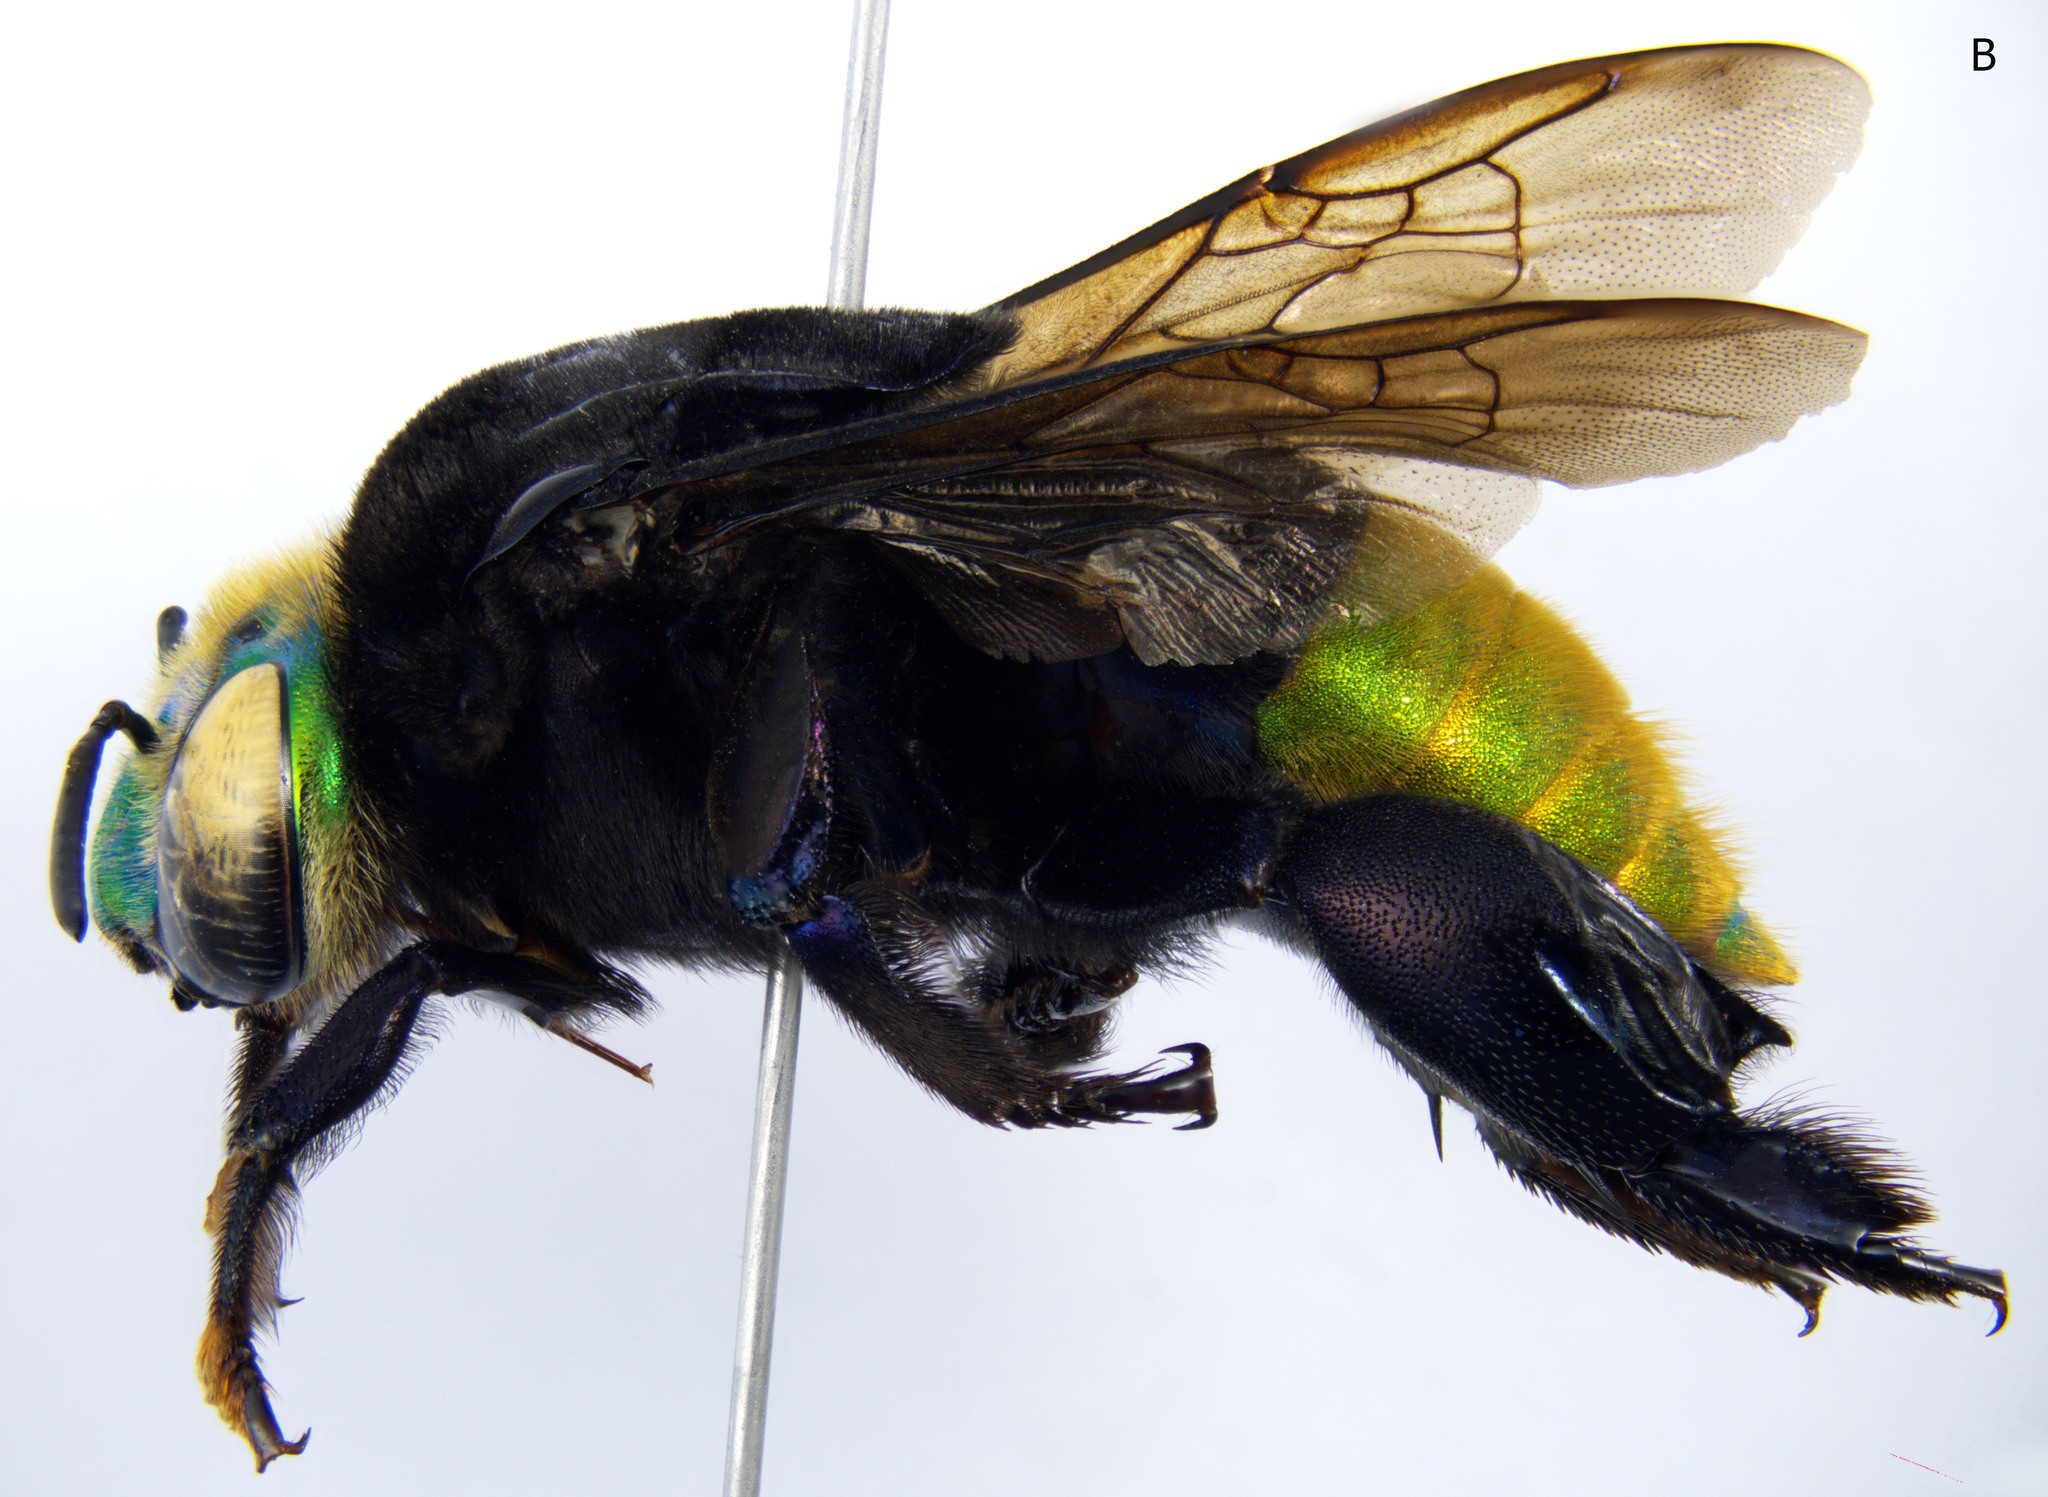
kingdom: Animalia
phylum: Arthropoda
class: Insecta
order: Hymenoptera
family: Apidae
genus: Eufriesea
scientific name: Eufriesea pulchra
